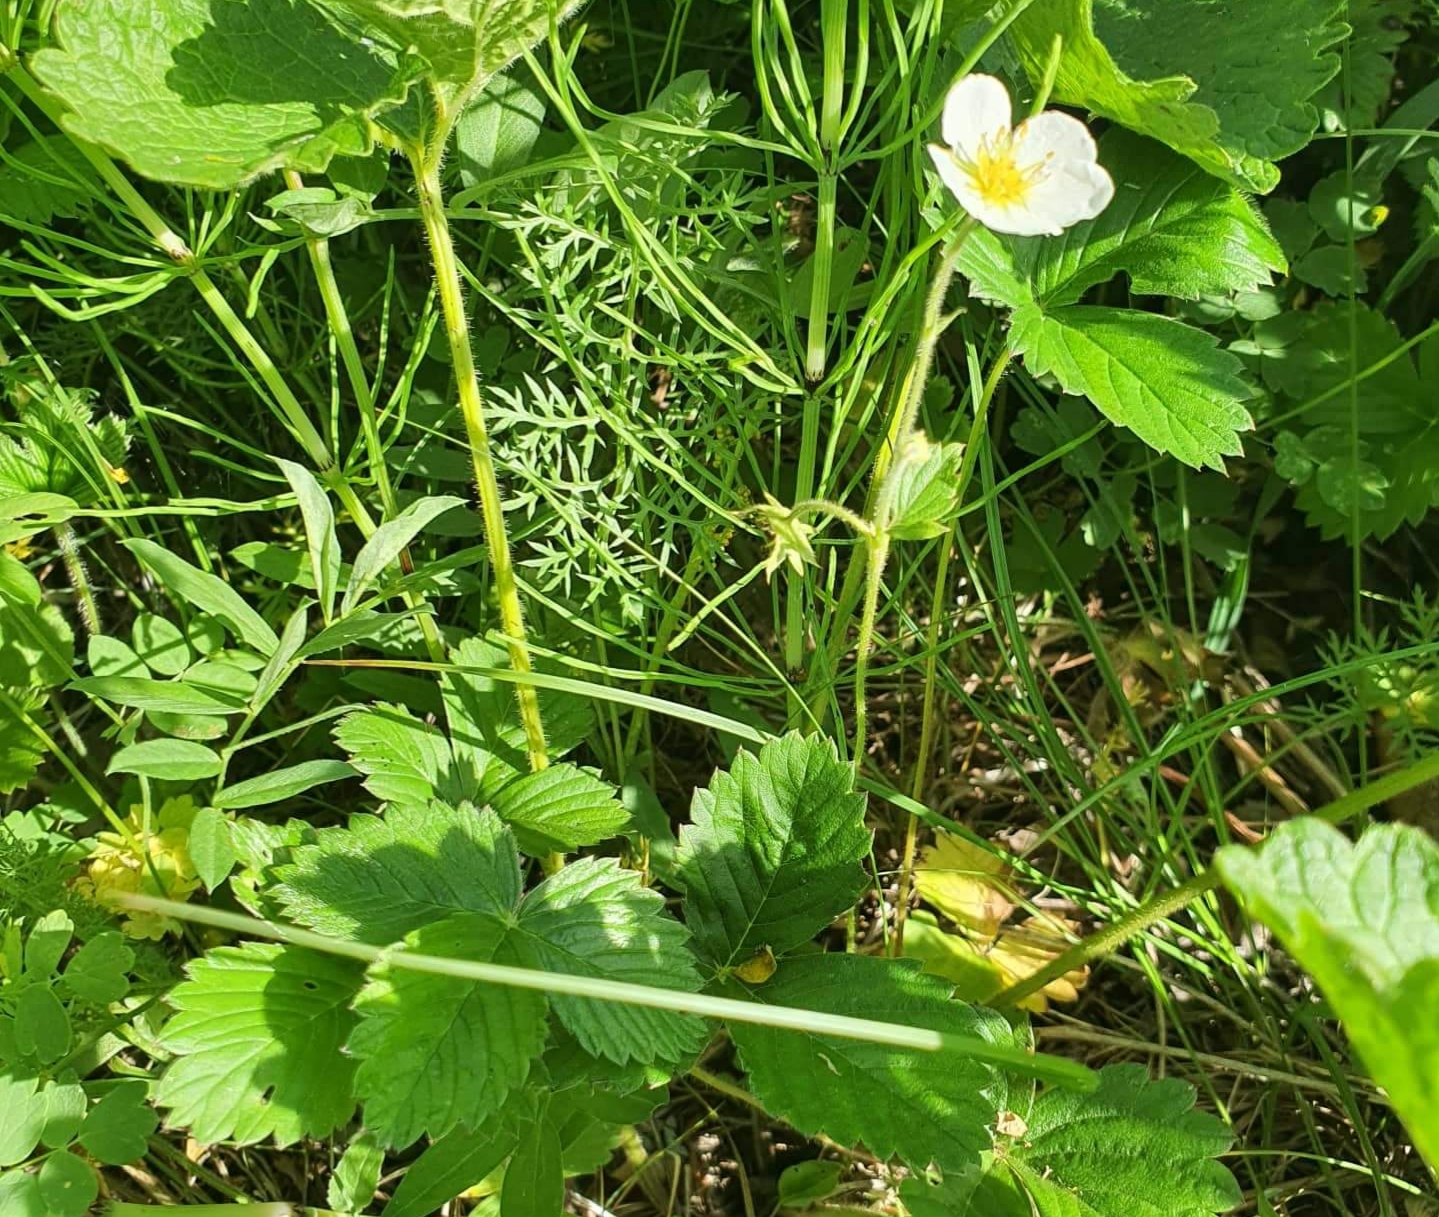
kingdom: Plantae
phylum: Tracheophyta
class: Magnoliopsida
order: Rosales
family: Rosaceae
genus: Fragaria
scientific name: Fragaria viridis
